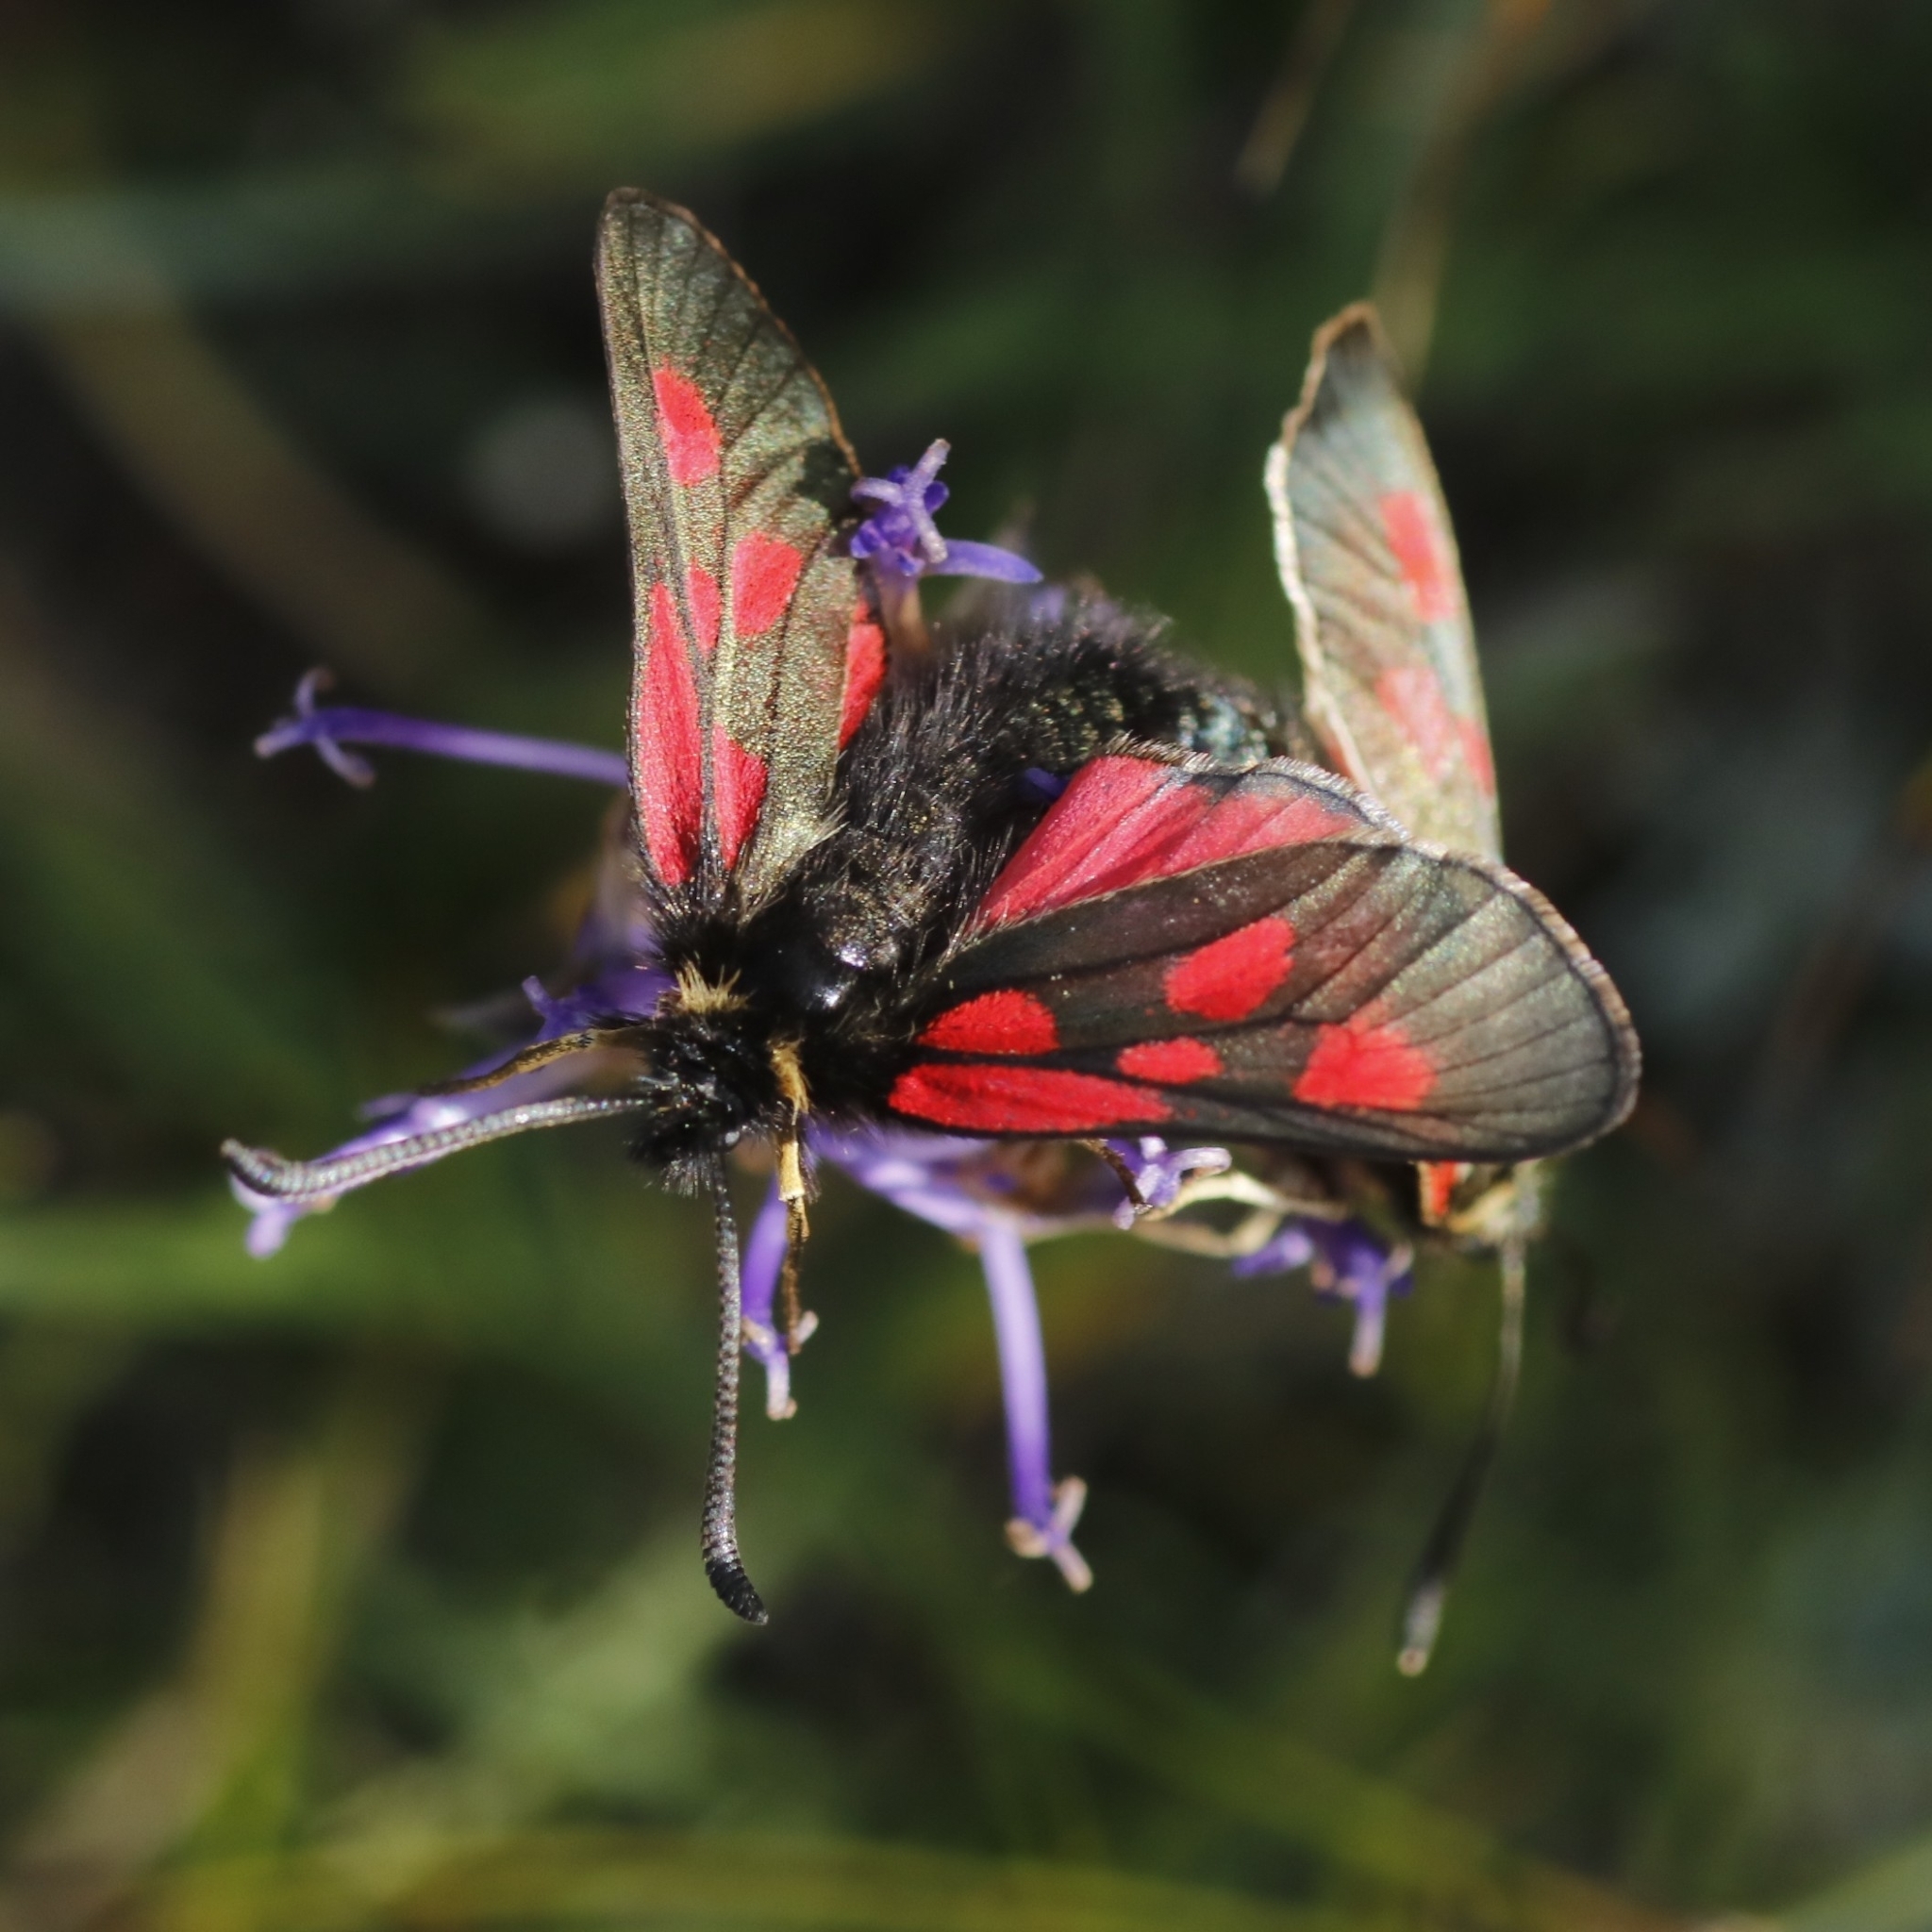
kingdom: Animalia
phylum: Arthropoda
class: Insecta
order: Lepidoptera
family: Zygaenidae
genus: Zygaena
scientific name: Zygaena exulans
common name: Scotch burnet
